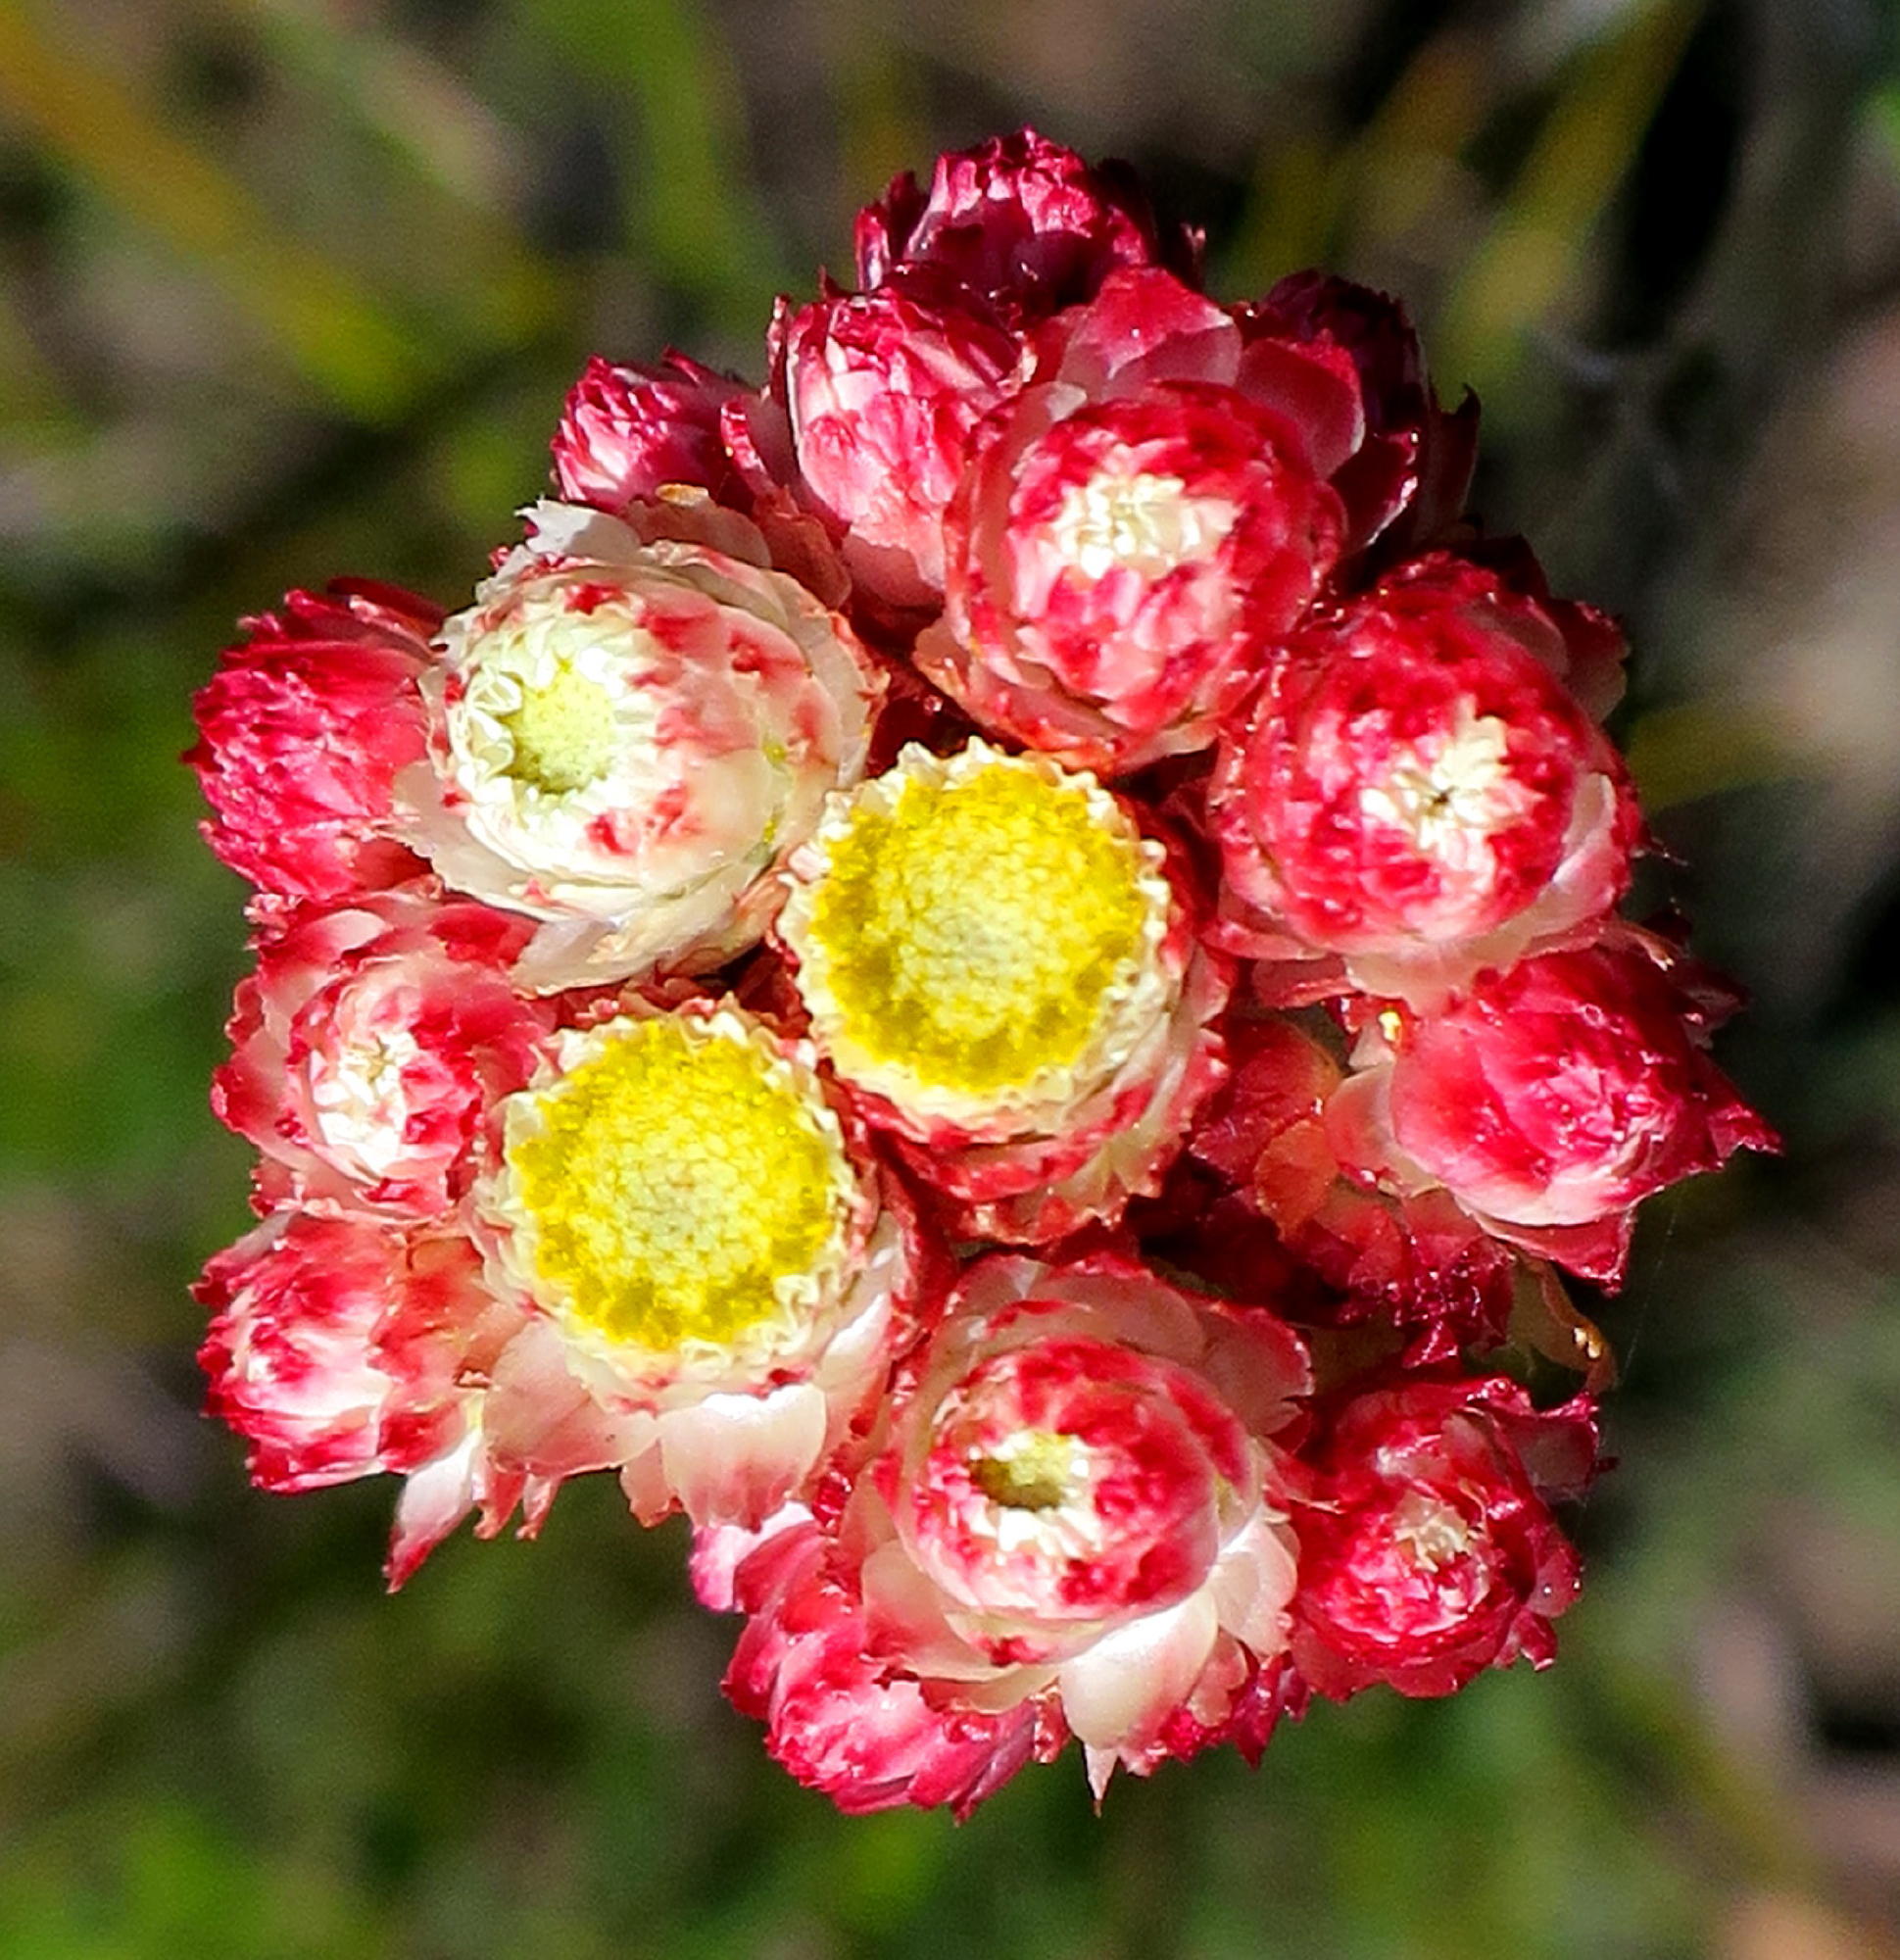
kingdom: Plantae
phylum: Tracheophyta
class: Magnoliopsida
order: Asterales
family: Asteraceae
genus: Helichrysum
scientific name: Helichrysum felinum
